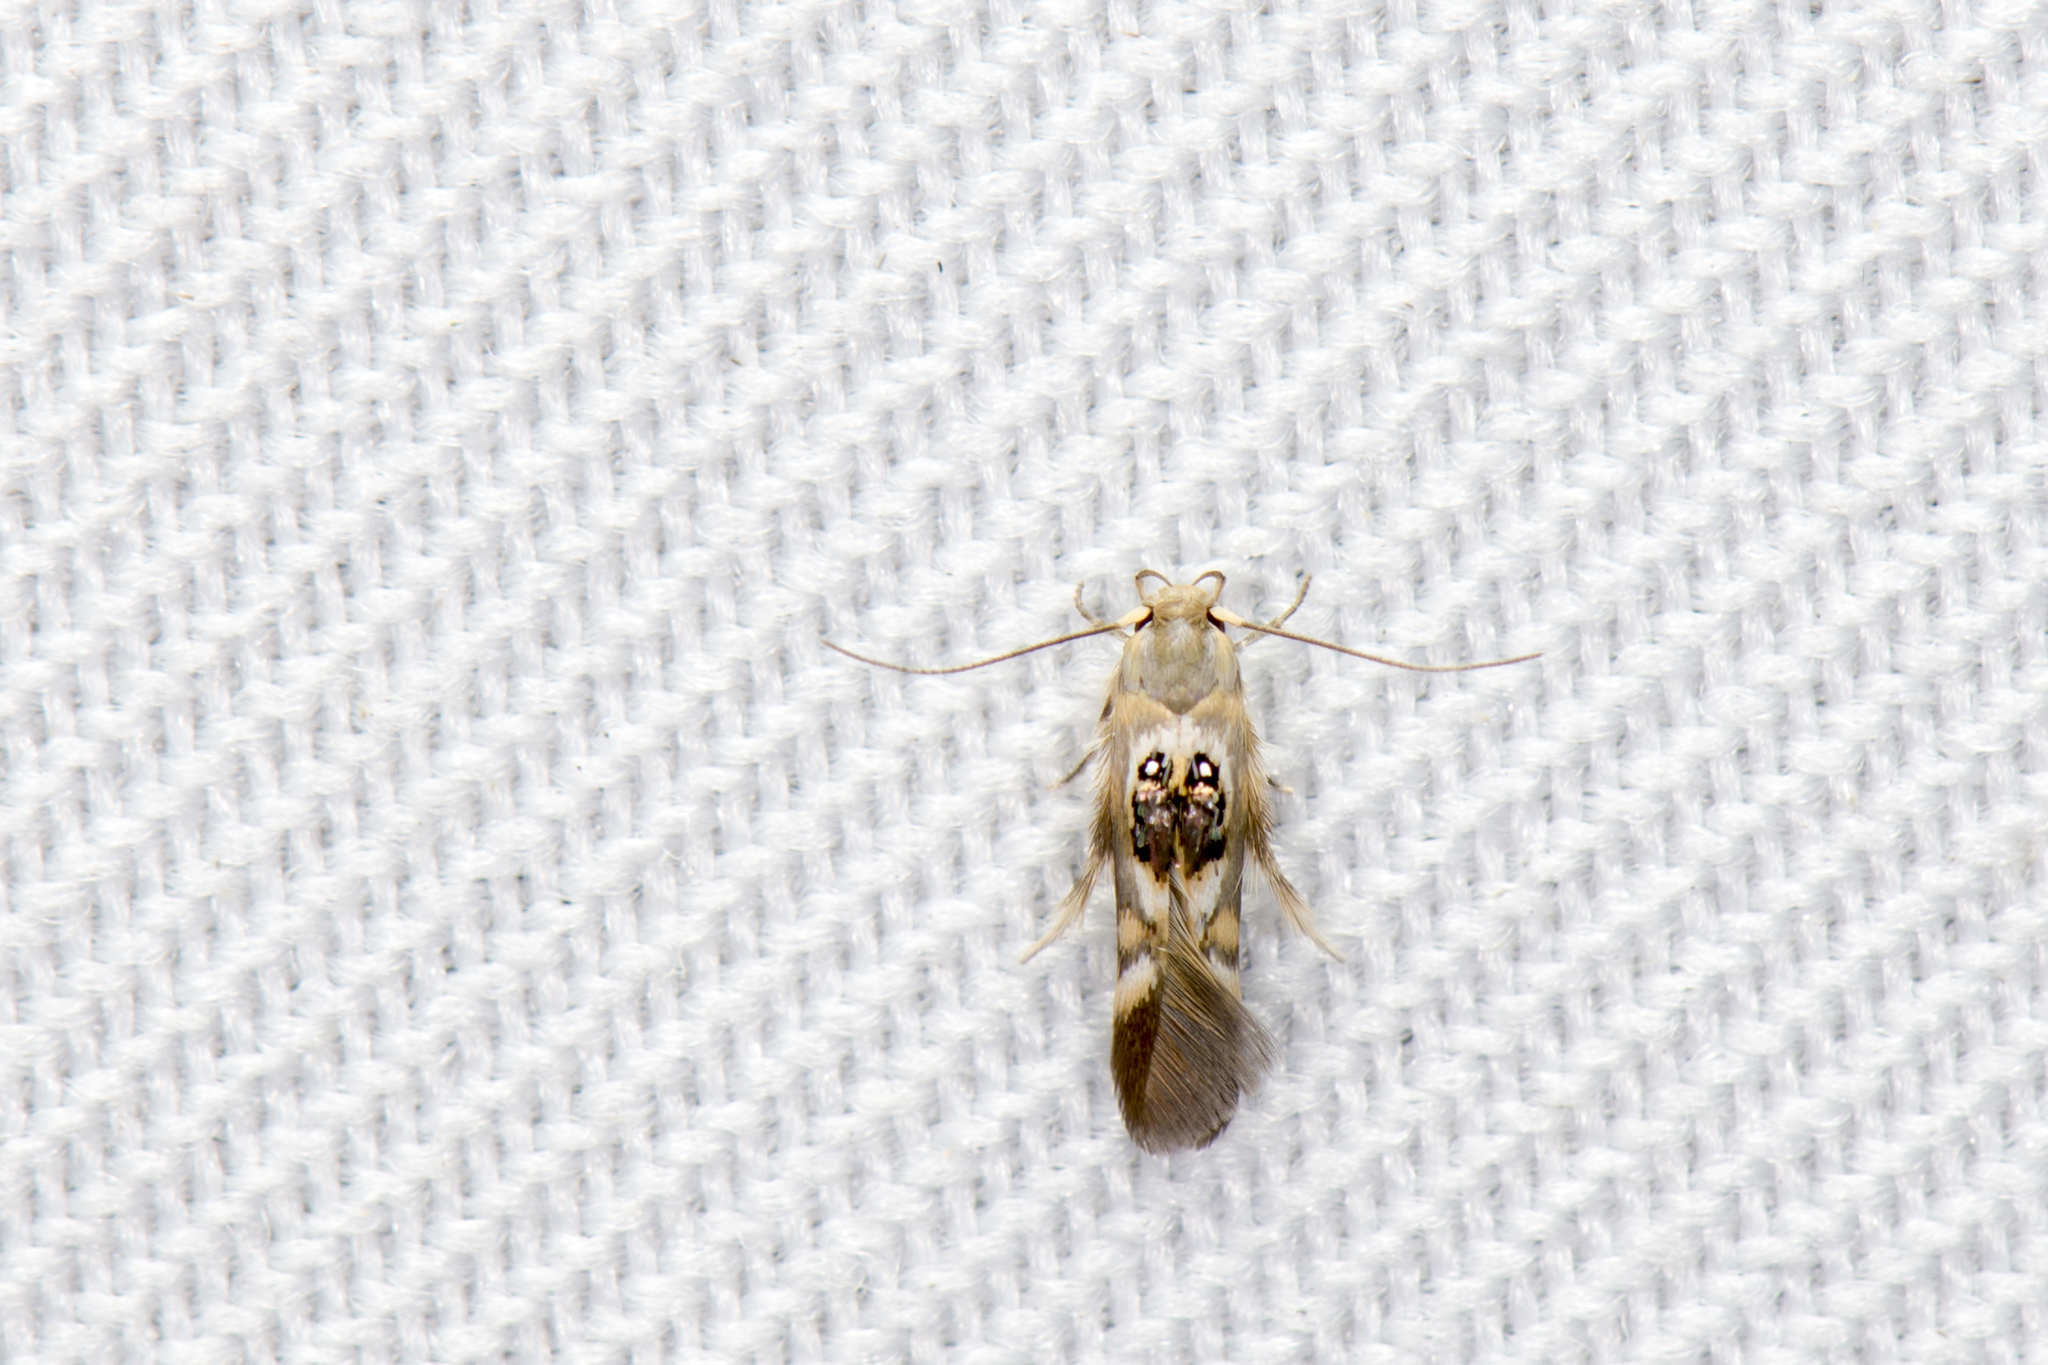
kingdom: Animalia
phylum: Arthropoda
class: Insecta
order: Lepidoptera
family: Stathmopodidae
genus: Hieromantis
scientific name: Hieromantis arcuata
